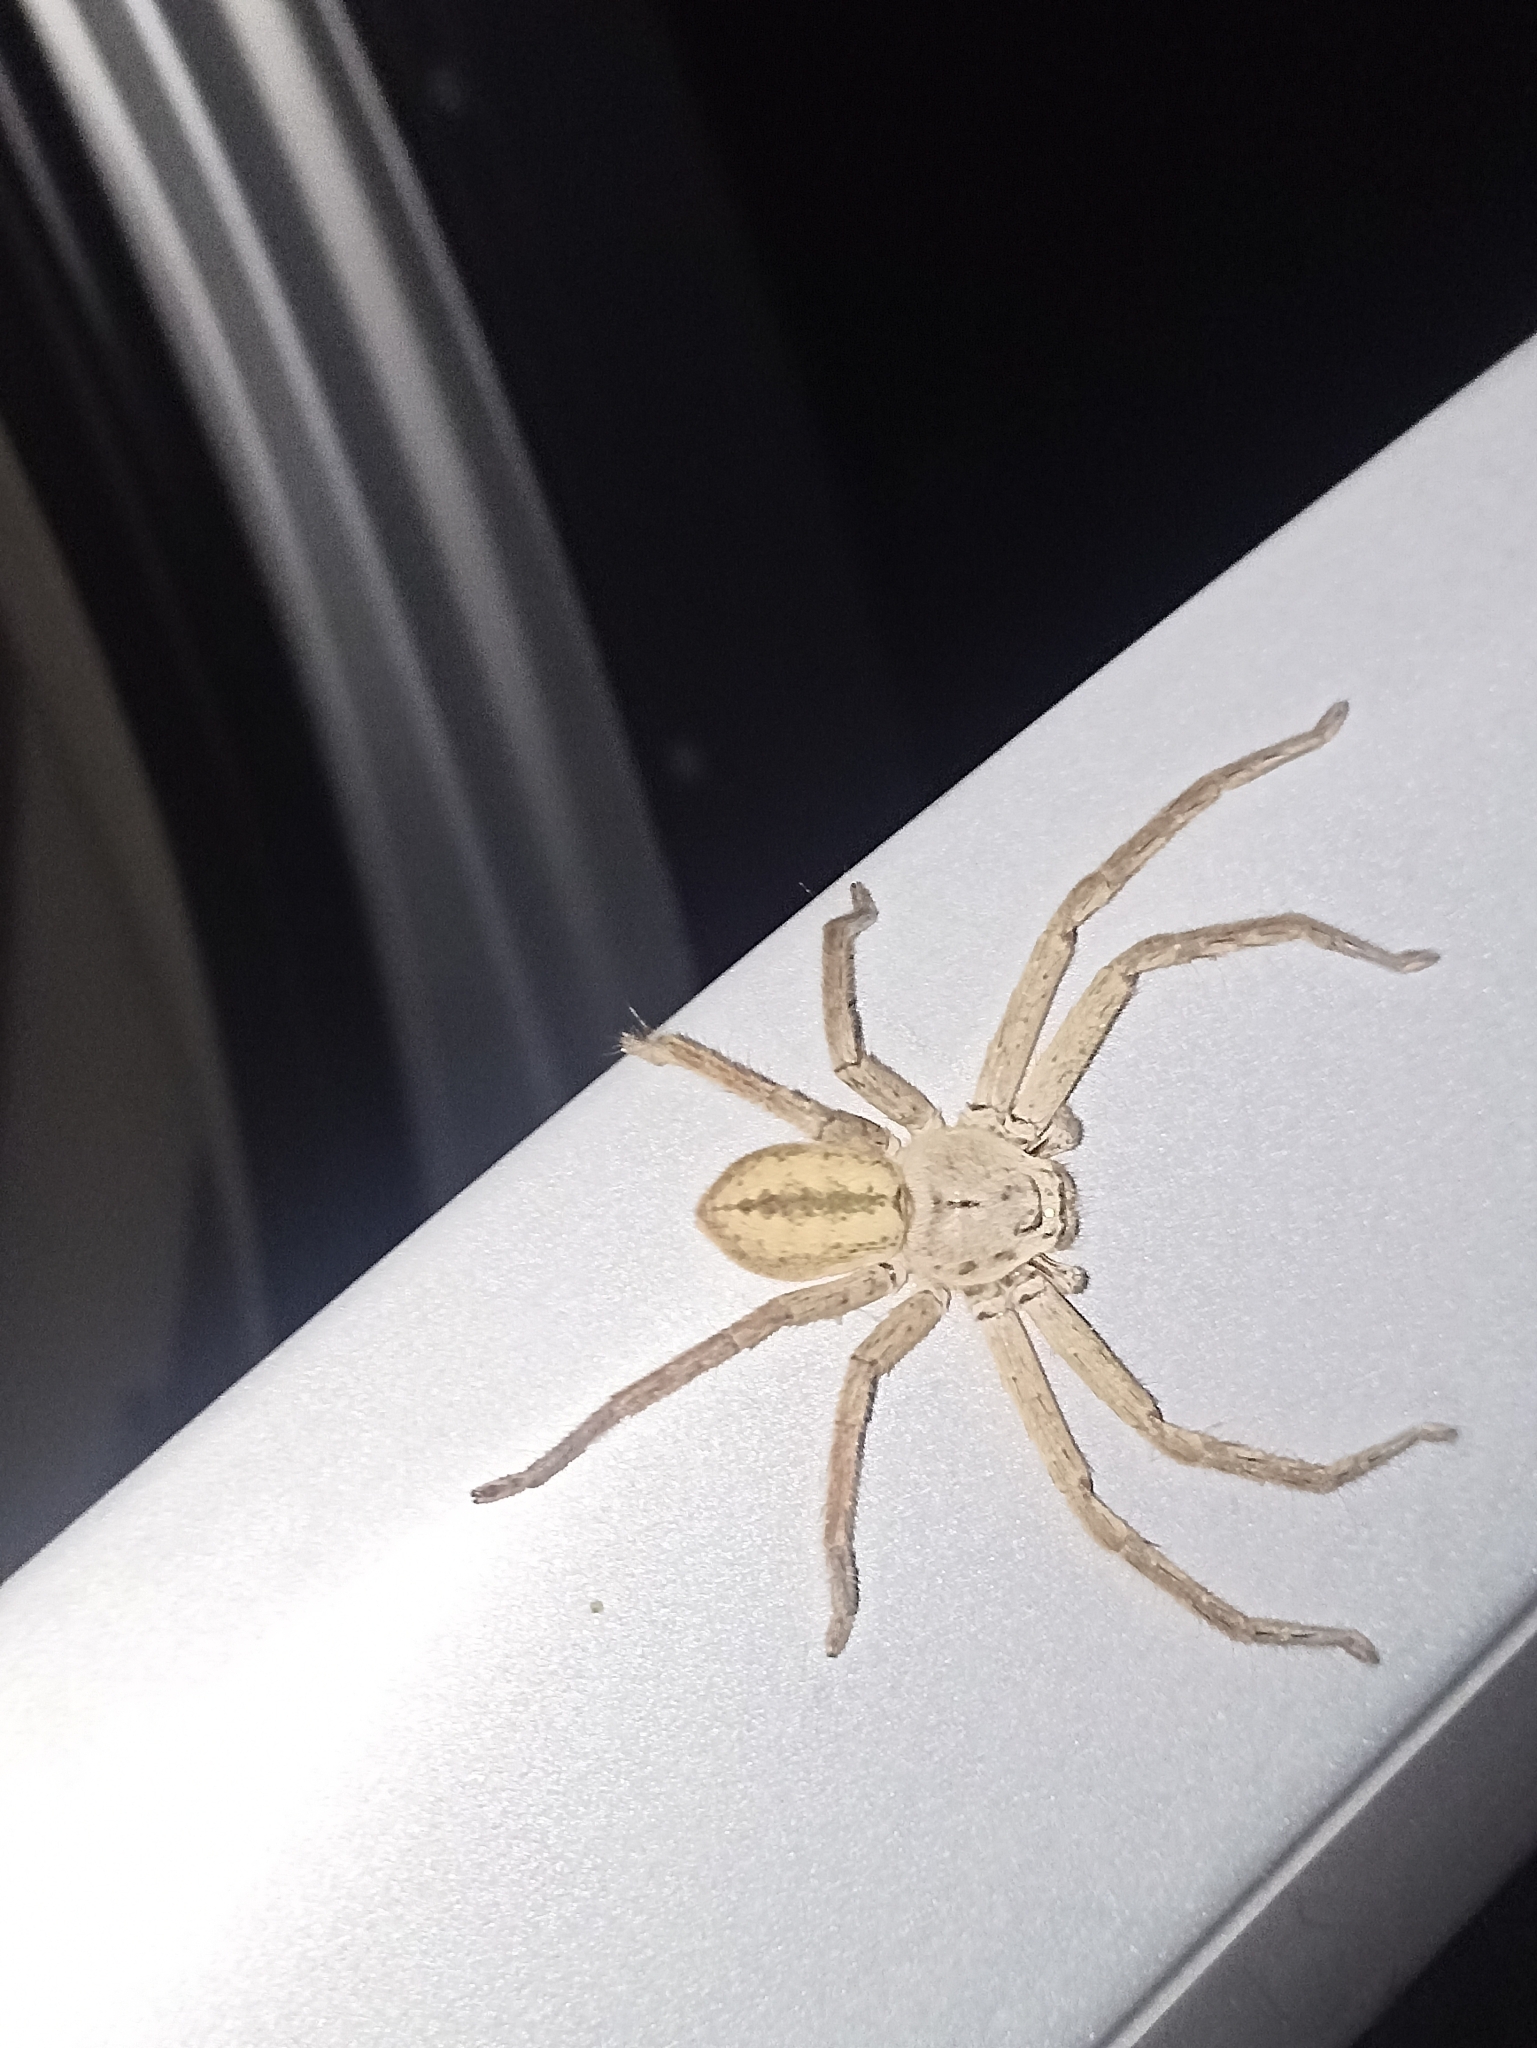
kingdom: Animalia
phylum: Arthropoda
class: Arachnida
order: Araneae
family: Sparassidae
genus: Beregama
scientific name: Beregama cordata
